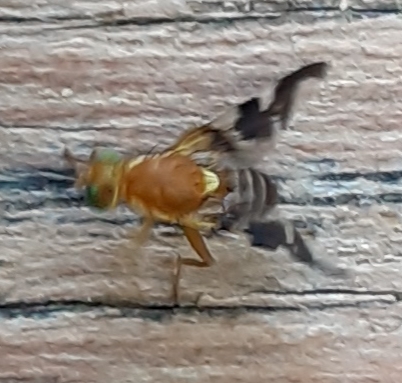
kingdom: Animalia
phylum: Arthropoda
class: Insecta
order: Diptera
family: Tephritidae
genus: Rhagoletis
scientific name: Rhagoletis suavis
